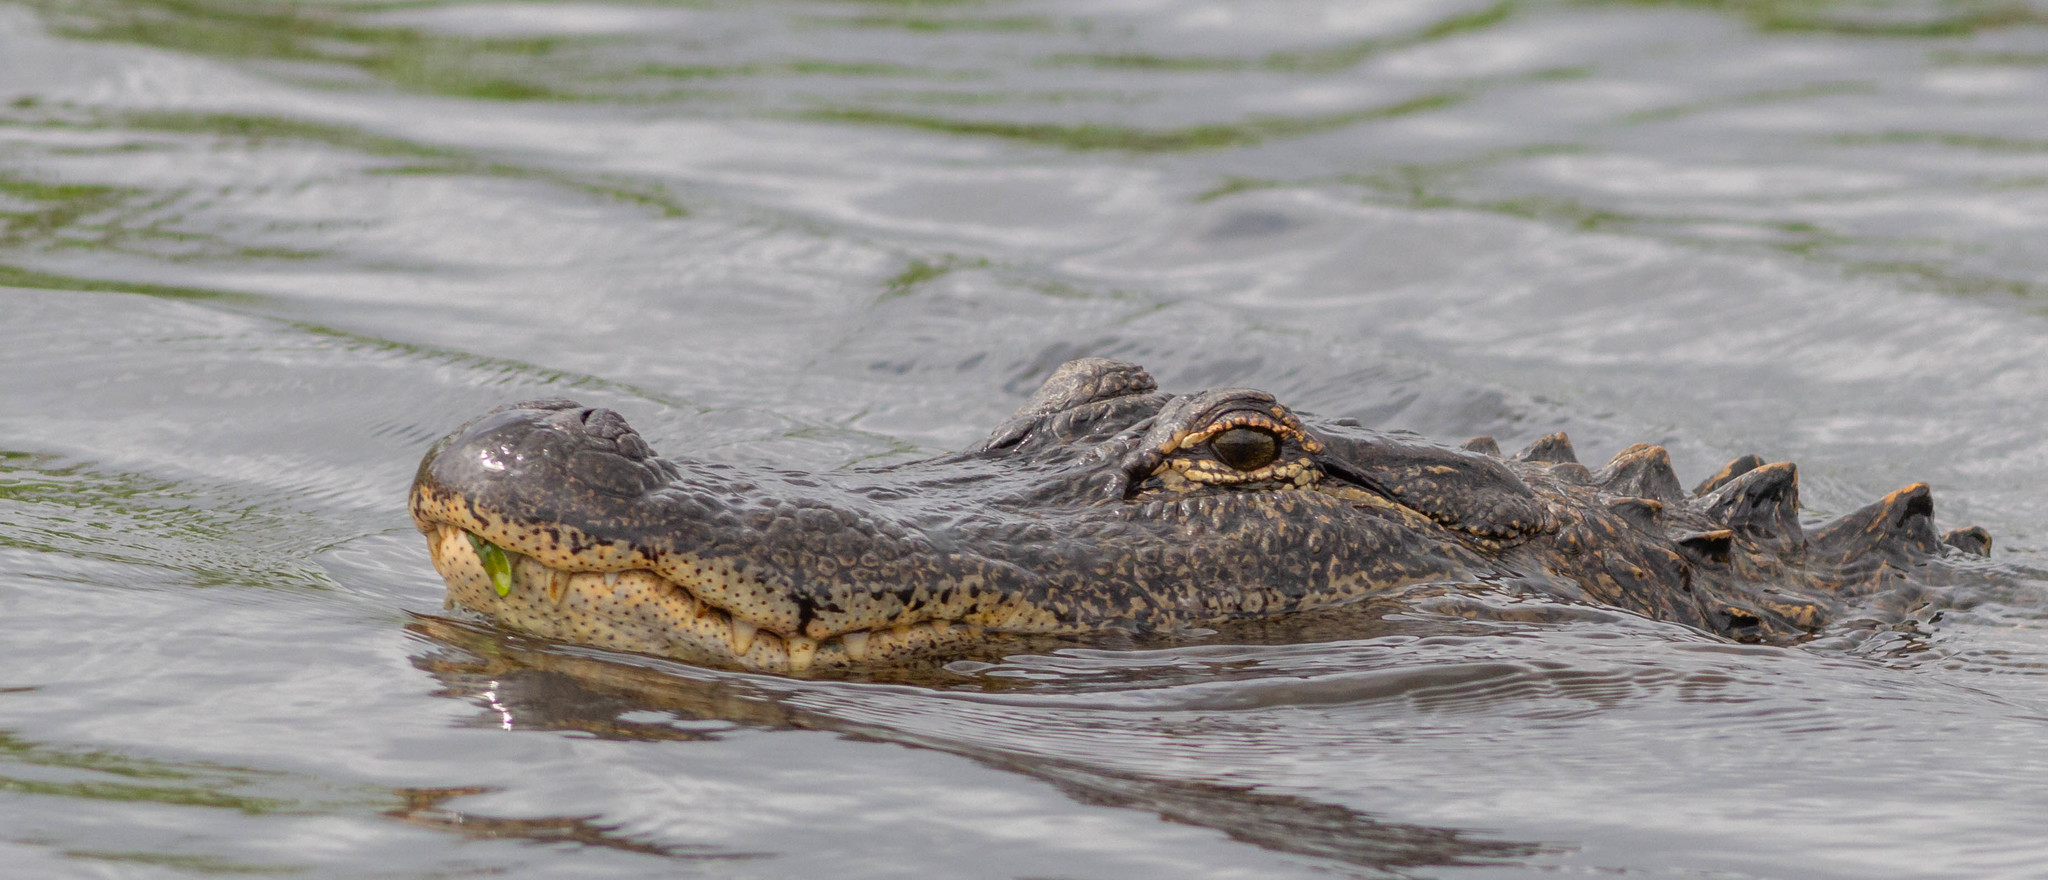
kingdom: Animalia
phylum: Chordata
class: Crocodylia
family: Alligatoridae
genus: Alligator
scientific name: Alligator mississippiensis
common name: American alligator
